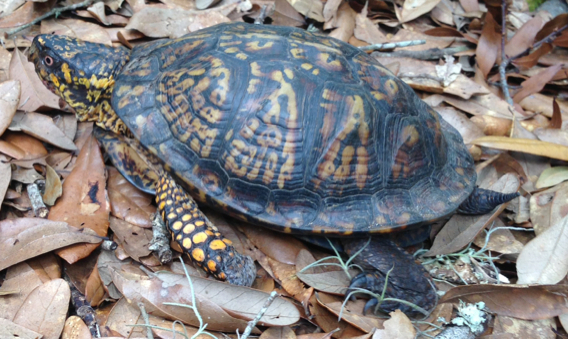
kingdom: Animalia
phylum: Chordata
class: Testudines
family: Emydidae
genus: Terrapene
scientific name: Terrapene carolina
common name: Common box turtle
